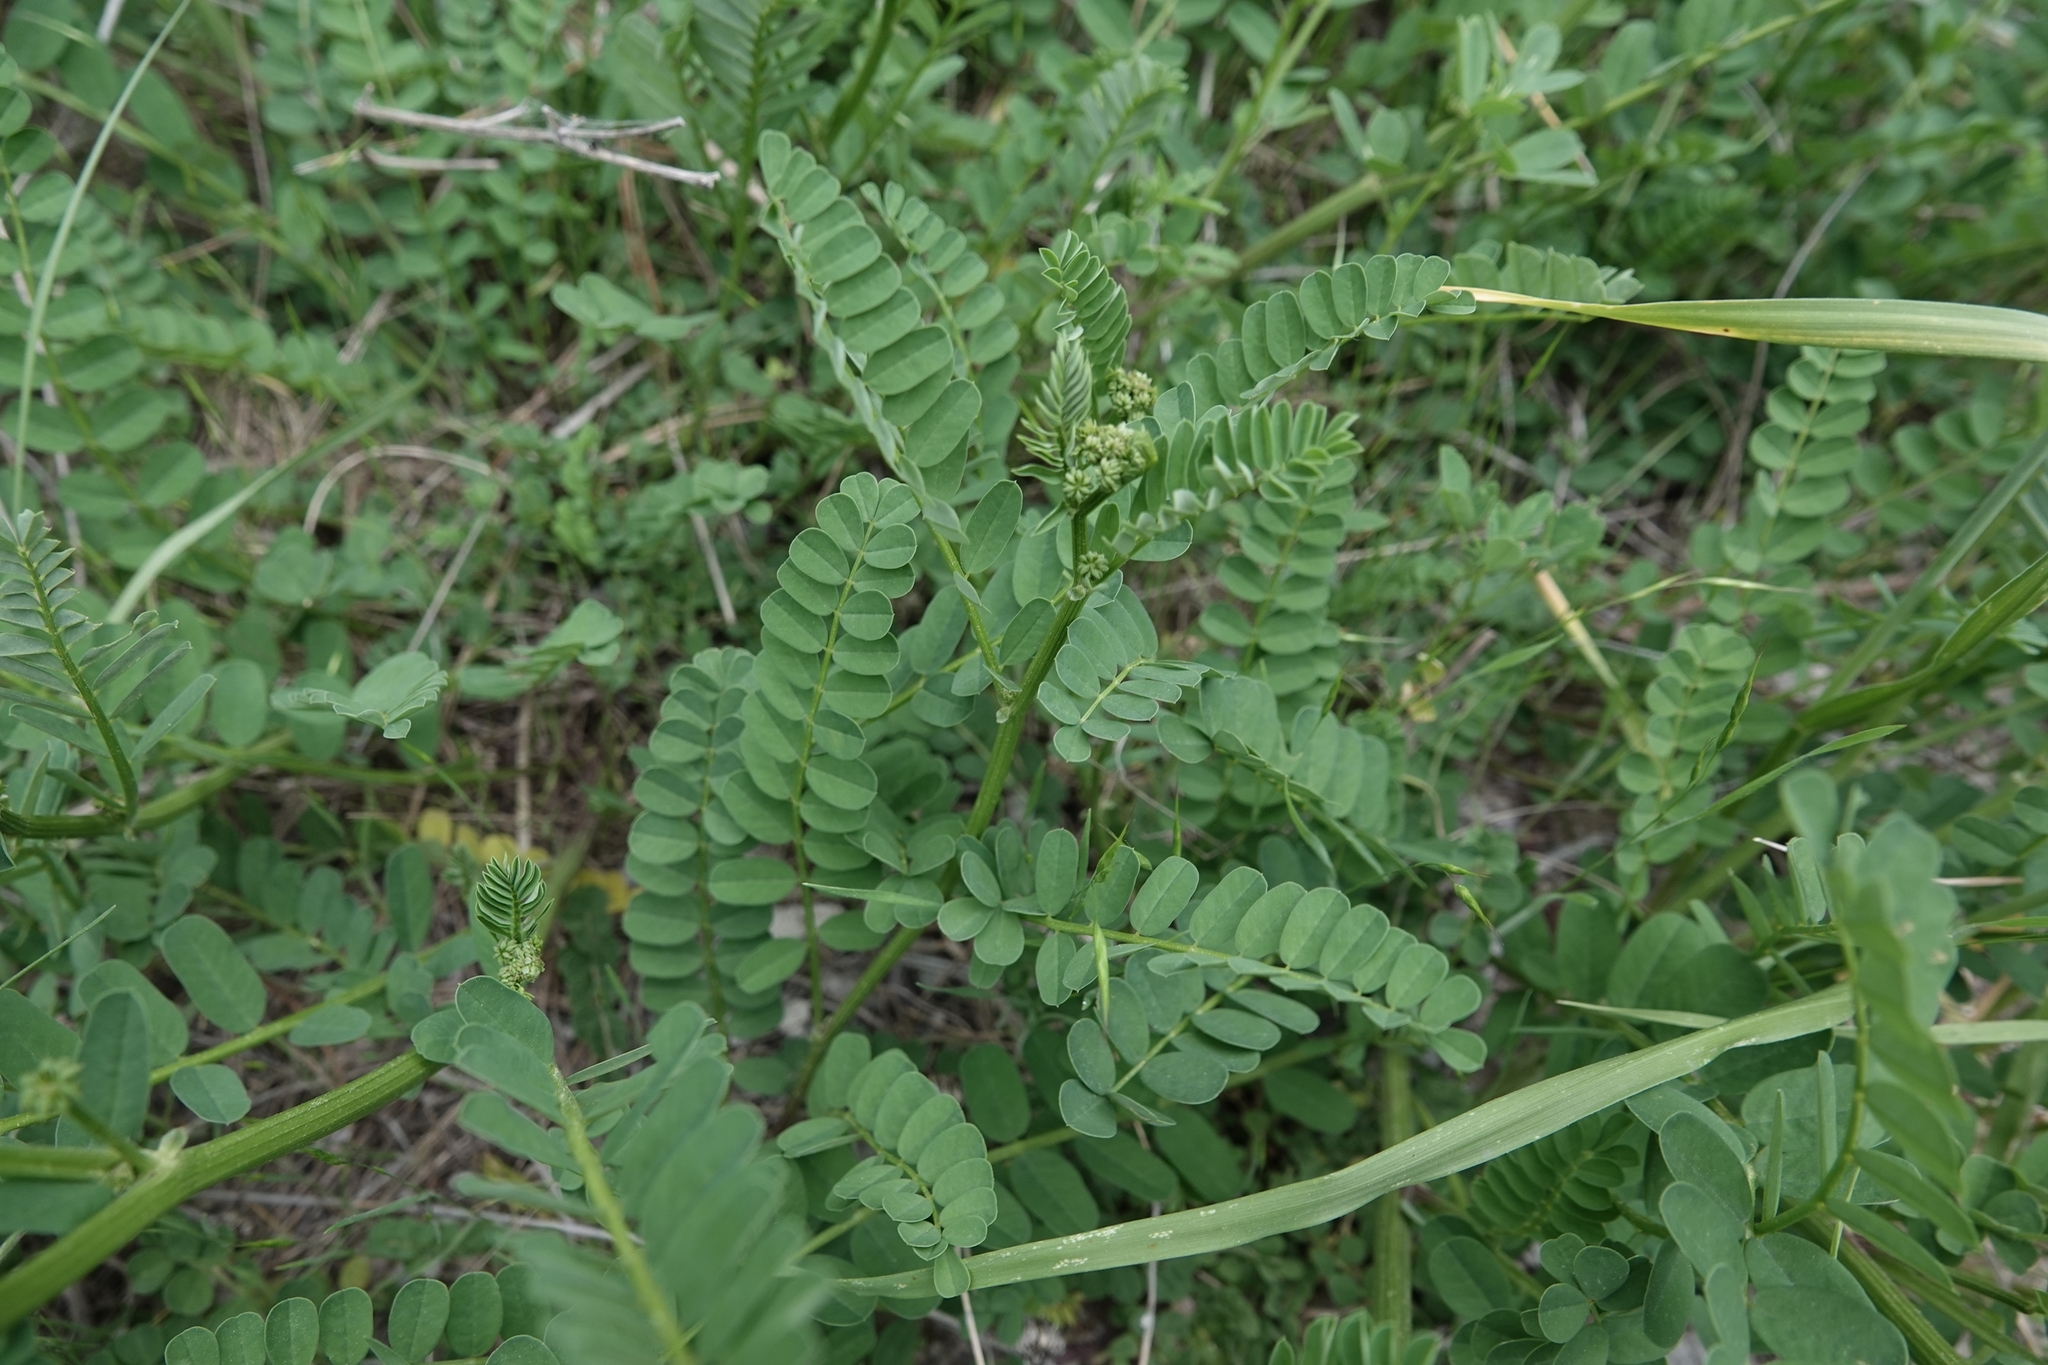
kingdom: Plantae
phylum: Tracheophyta
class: Magnoliopsida
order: Fabales
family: Fabaceae
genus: Coronilla
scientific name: Coronilla varia
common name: Crownvetch
